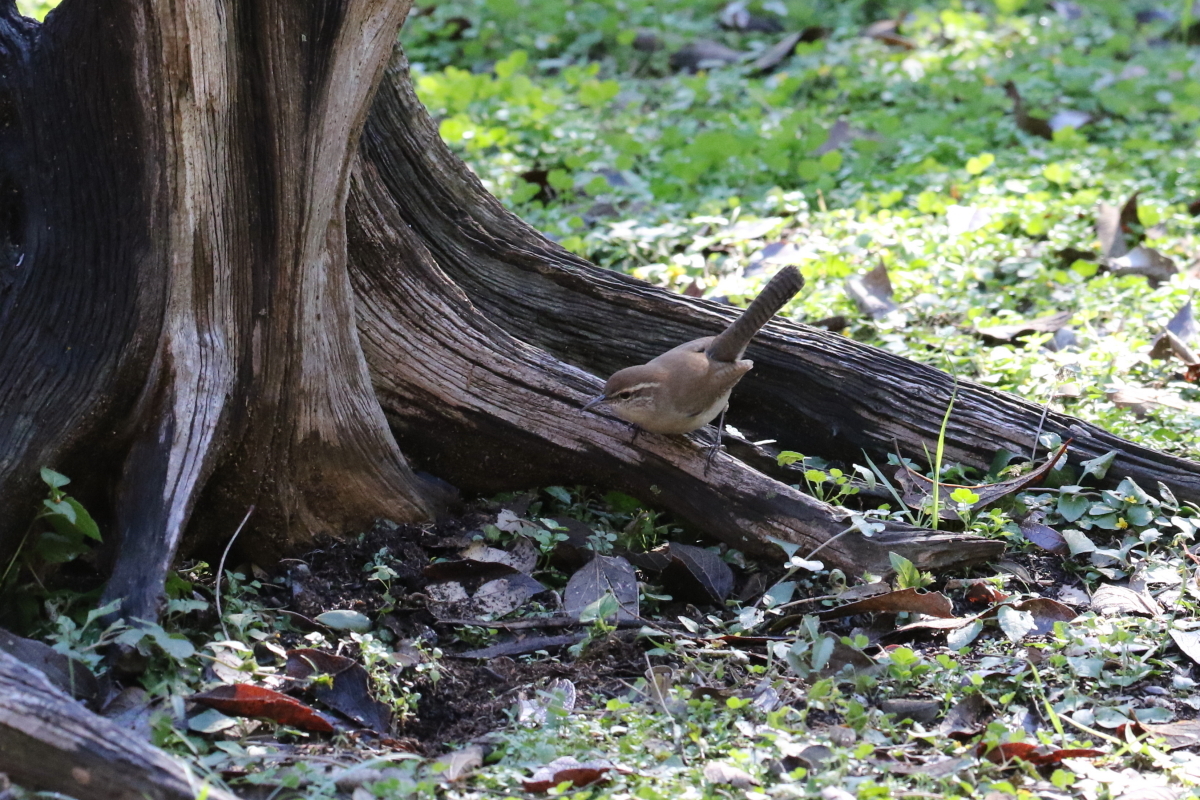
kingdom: Animalia
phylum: Chordata
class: Aves
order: Passeriformes
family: Troglodytidae
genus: Thryomanes
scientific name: Thryomanes bewickii
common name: Bewick's wren
